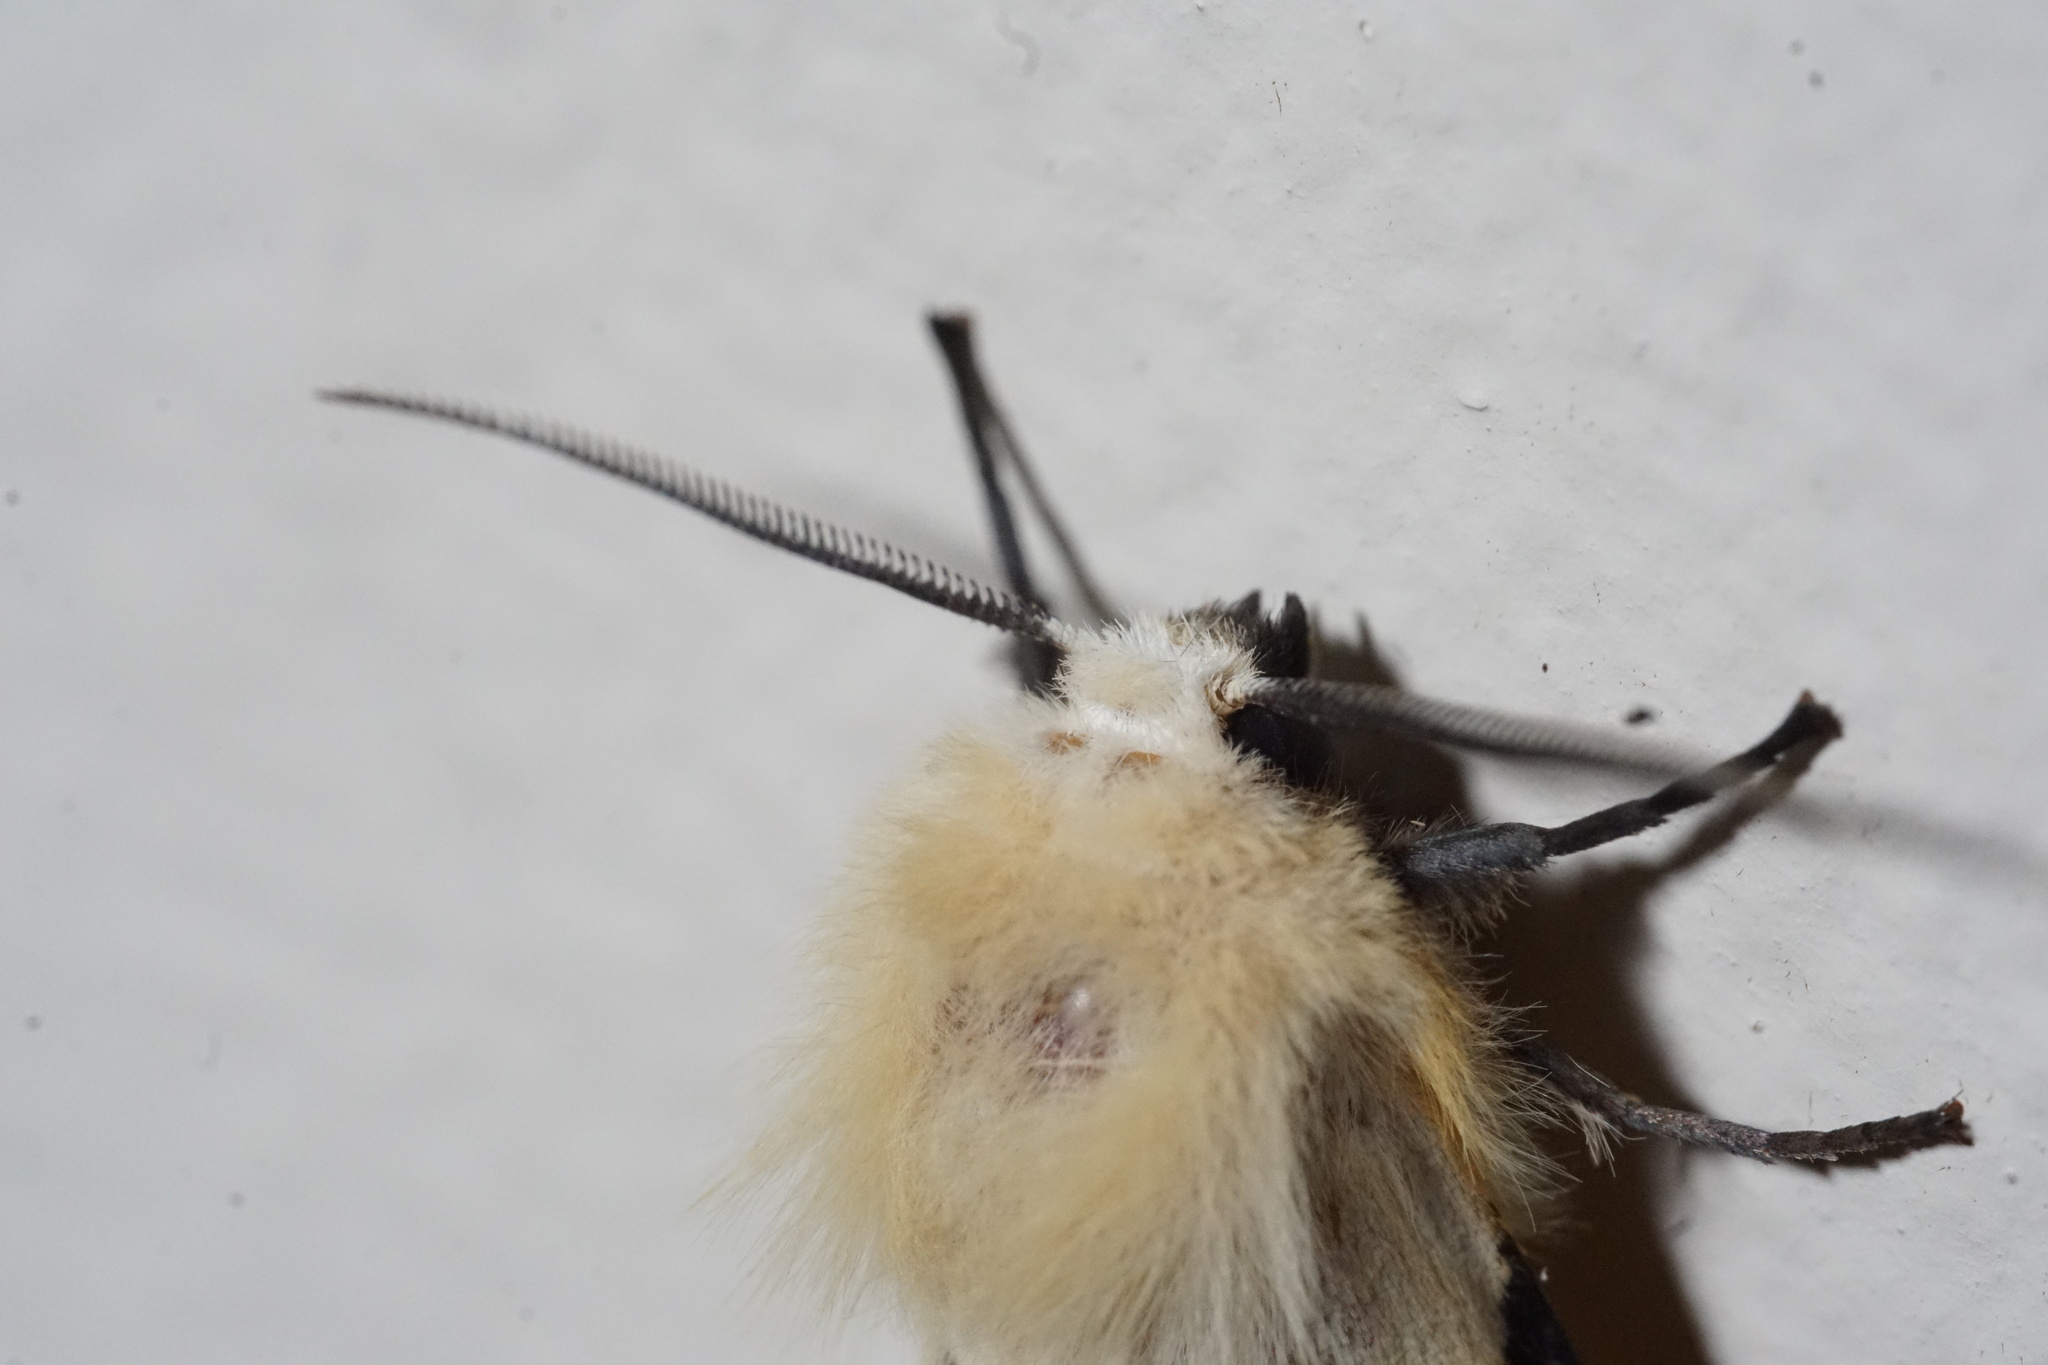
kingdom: Animalia
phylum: Arthropoda
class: Insecta
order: Lepidoptera
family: Erebidae
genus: Spilarctia
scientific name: Spilarctia lutea
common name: Buff ermine
